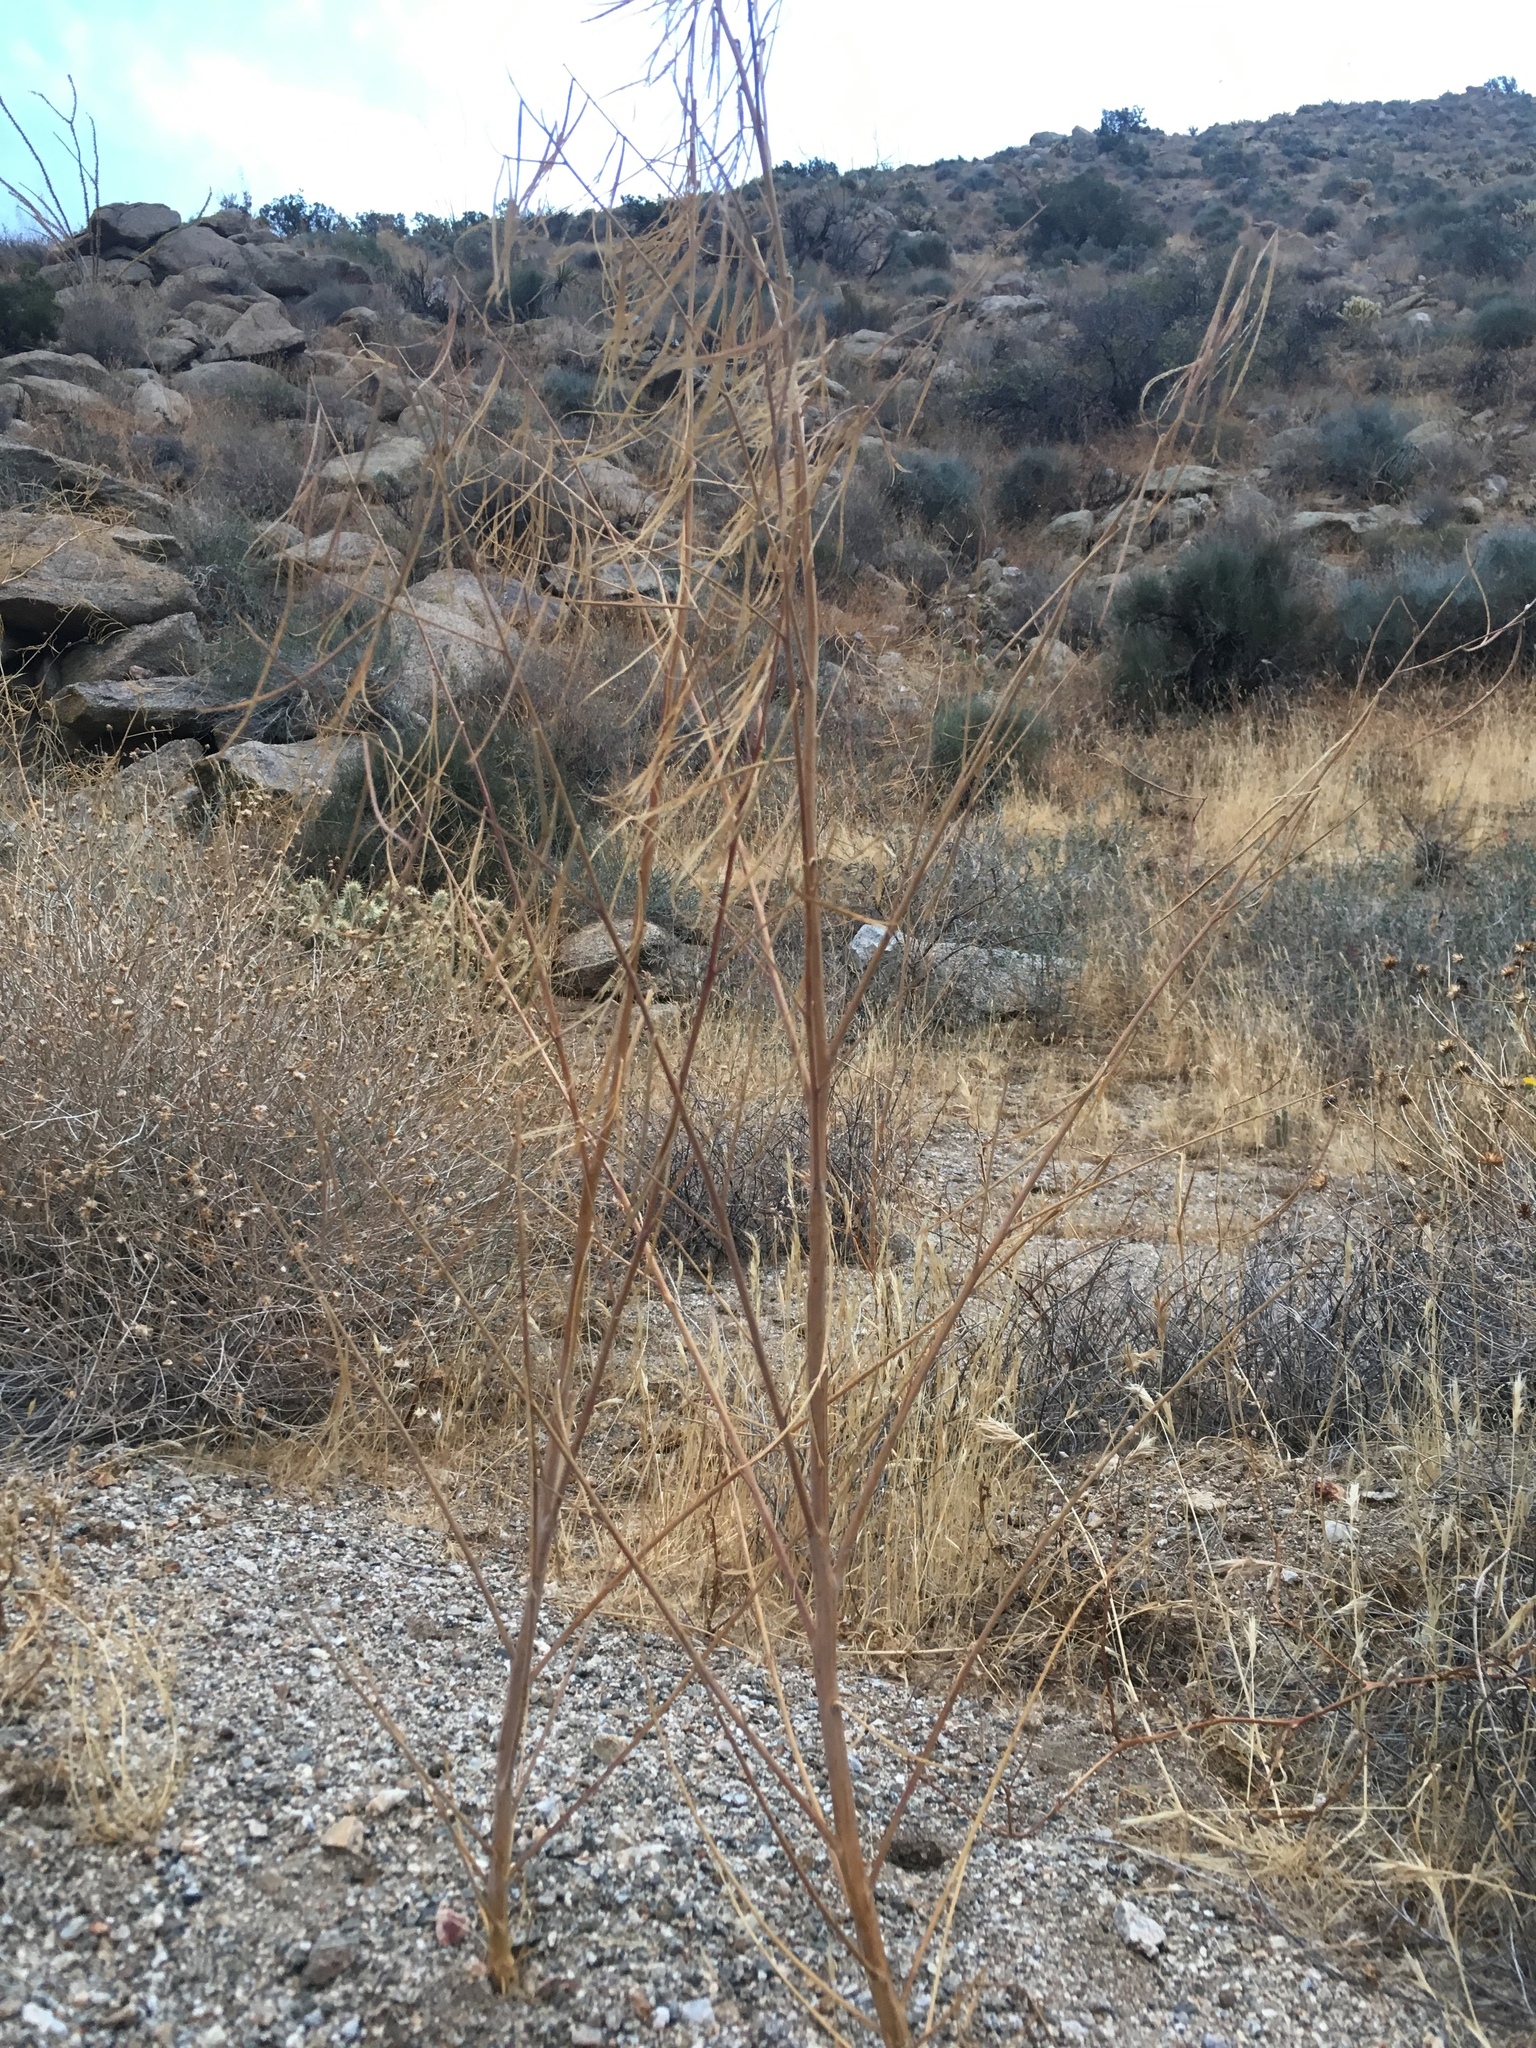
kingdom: Plantae
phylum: Tracheophyta
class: Magnoliopsida
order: Myrtales
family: Onagraceae
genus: Eulobus
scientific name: Eulobus californicus
